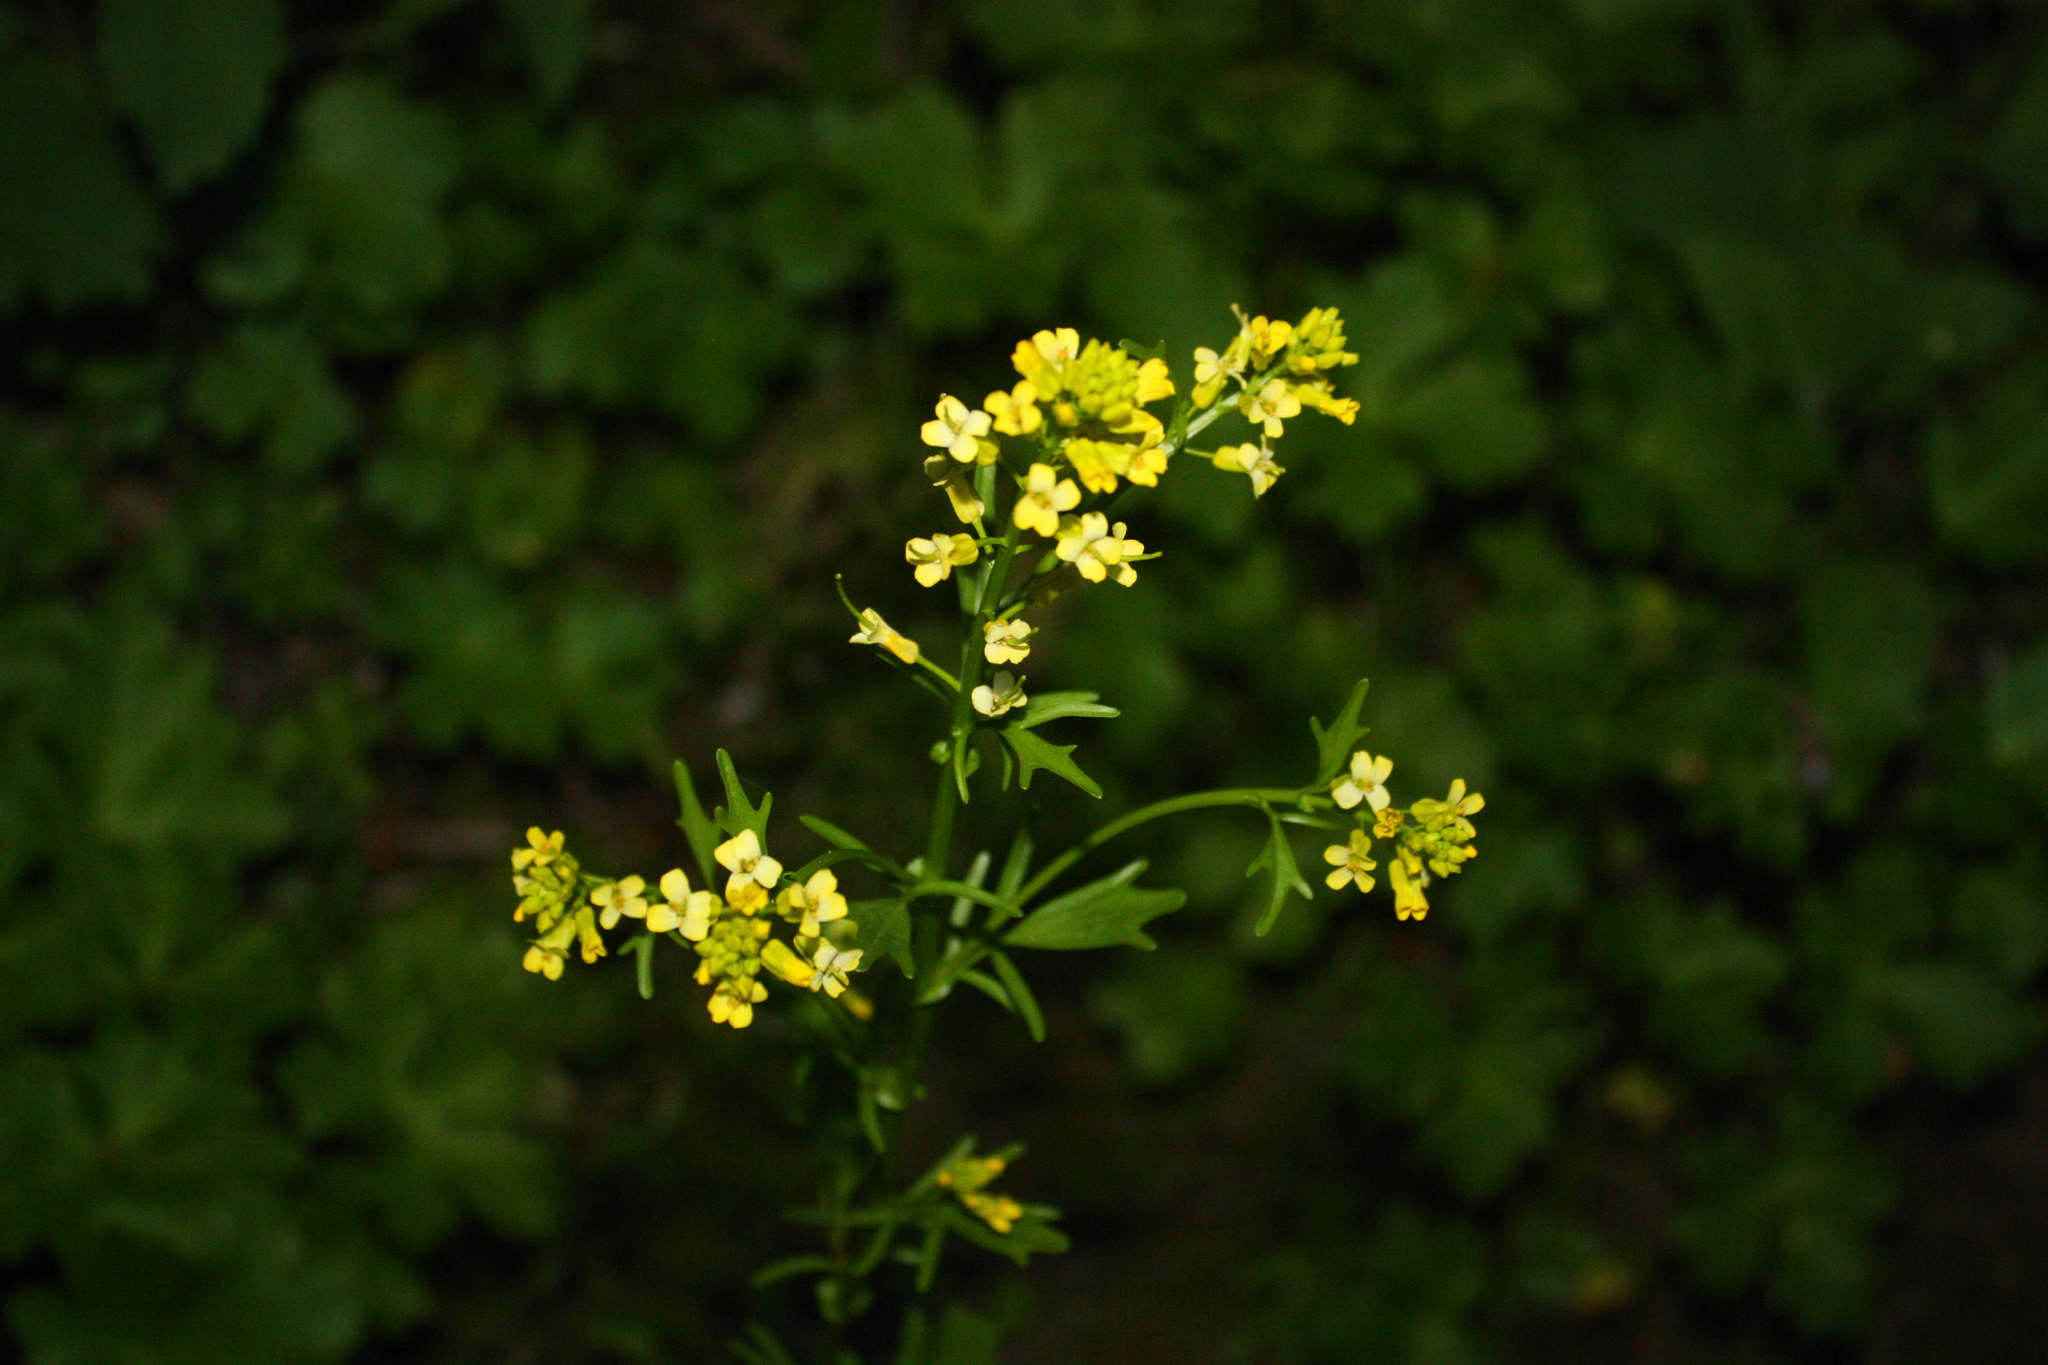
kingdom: Plantae
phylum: Tracheophyta
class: Magnoliopsida
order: Brassicales
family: Brassicaceae
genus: Barbarea
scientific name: Barbarea orthoceras
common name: American wintercress
